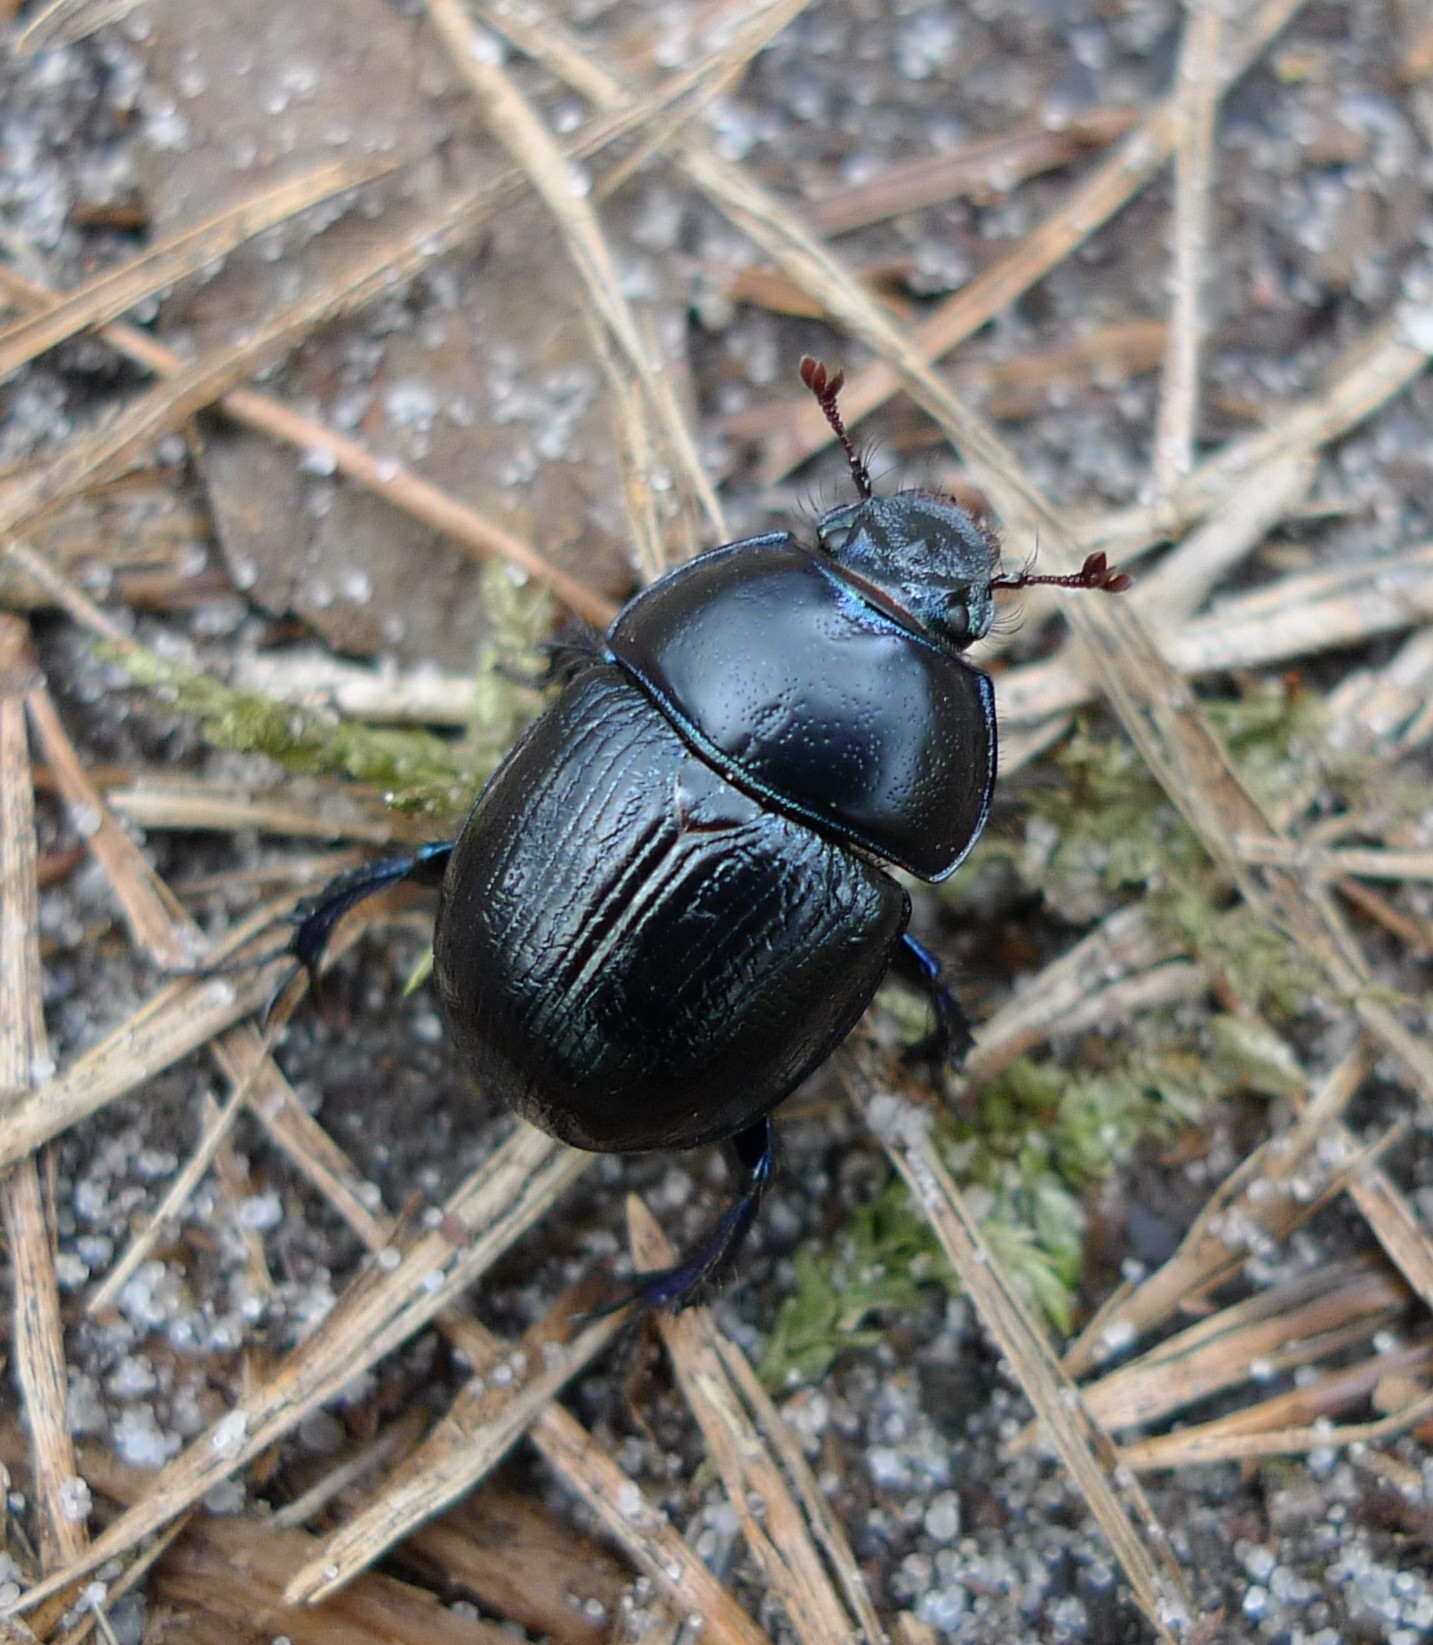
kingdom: Animalia
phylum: Arthropoda
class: Insecta
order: Coleoptera
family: Geotrupidae
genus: Anoplotrupes
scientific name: Anoplotrupes stercorosus
